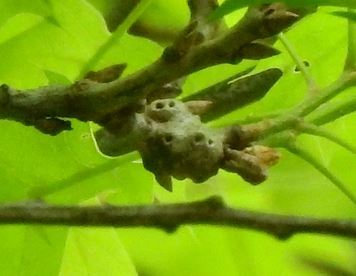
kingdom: Animalia
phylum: Arthropoda
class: Insecta
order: Hymenoptera
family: Cynipidae
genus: Callirhytis
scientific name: Callirhytis
